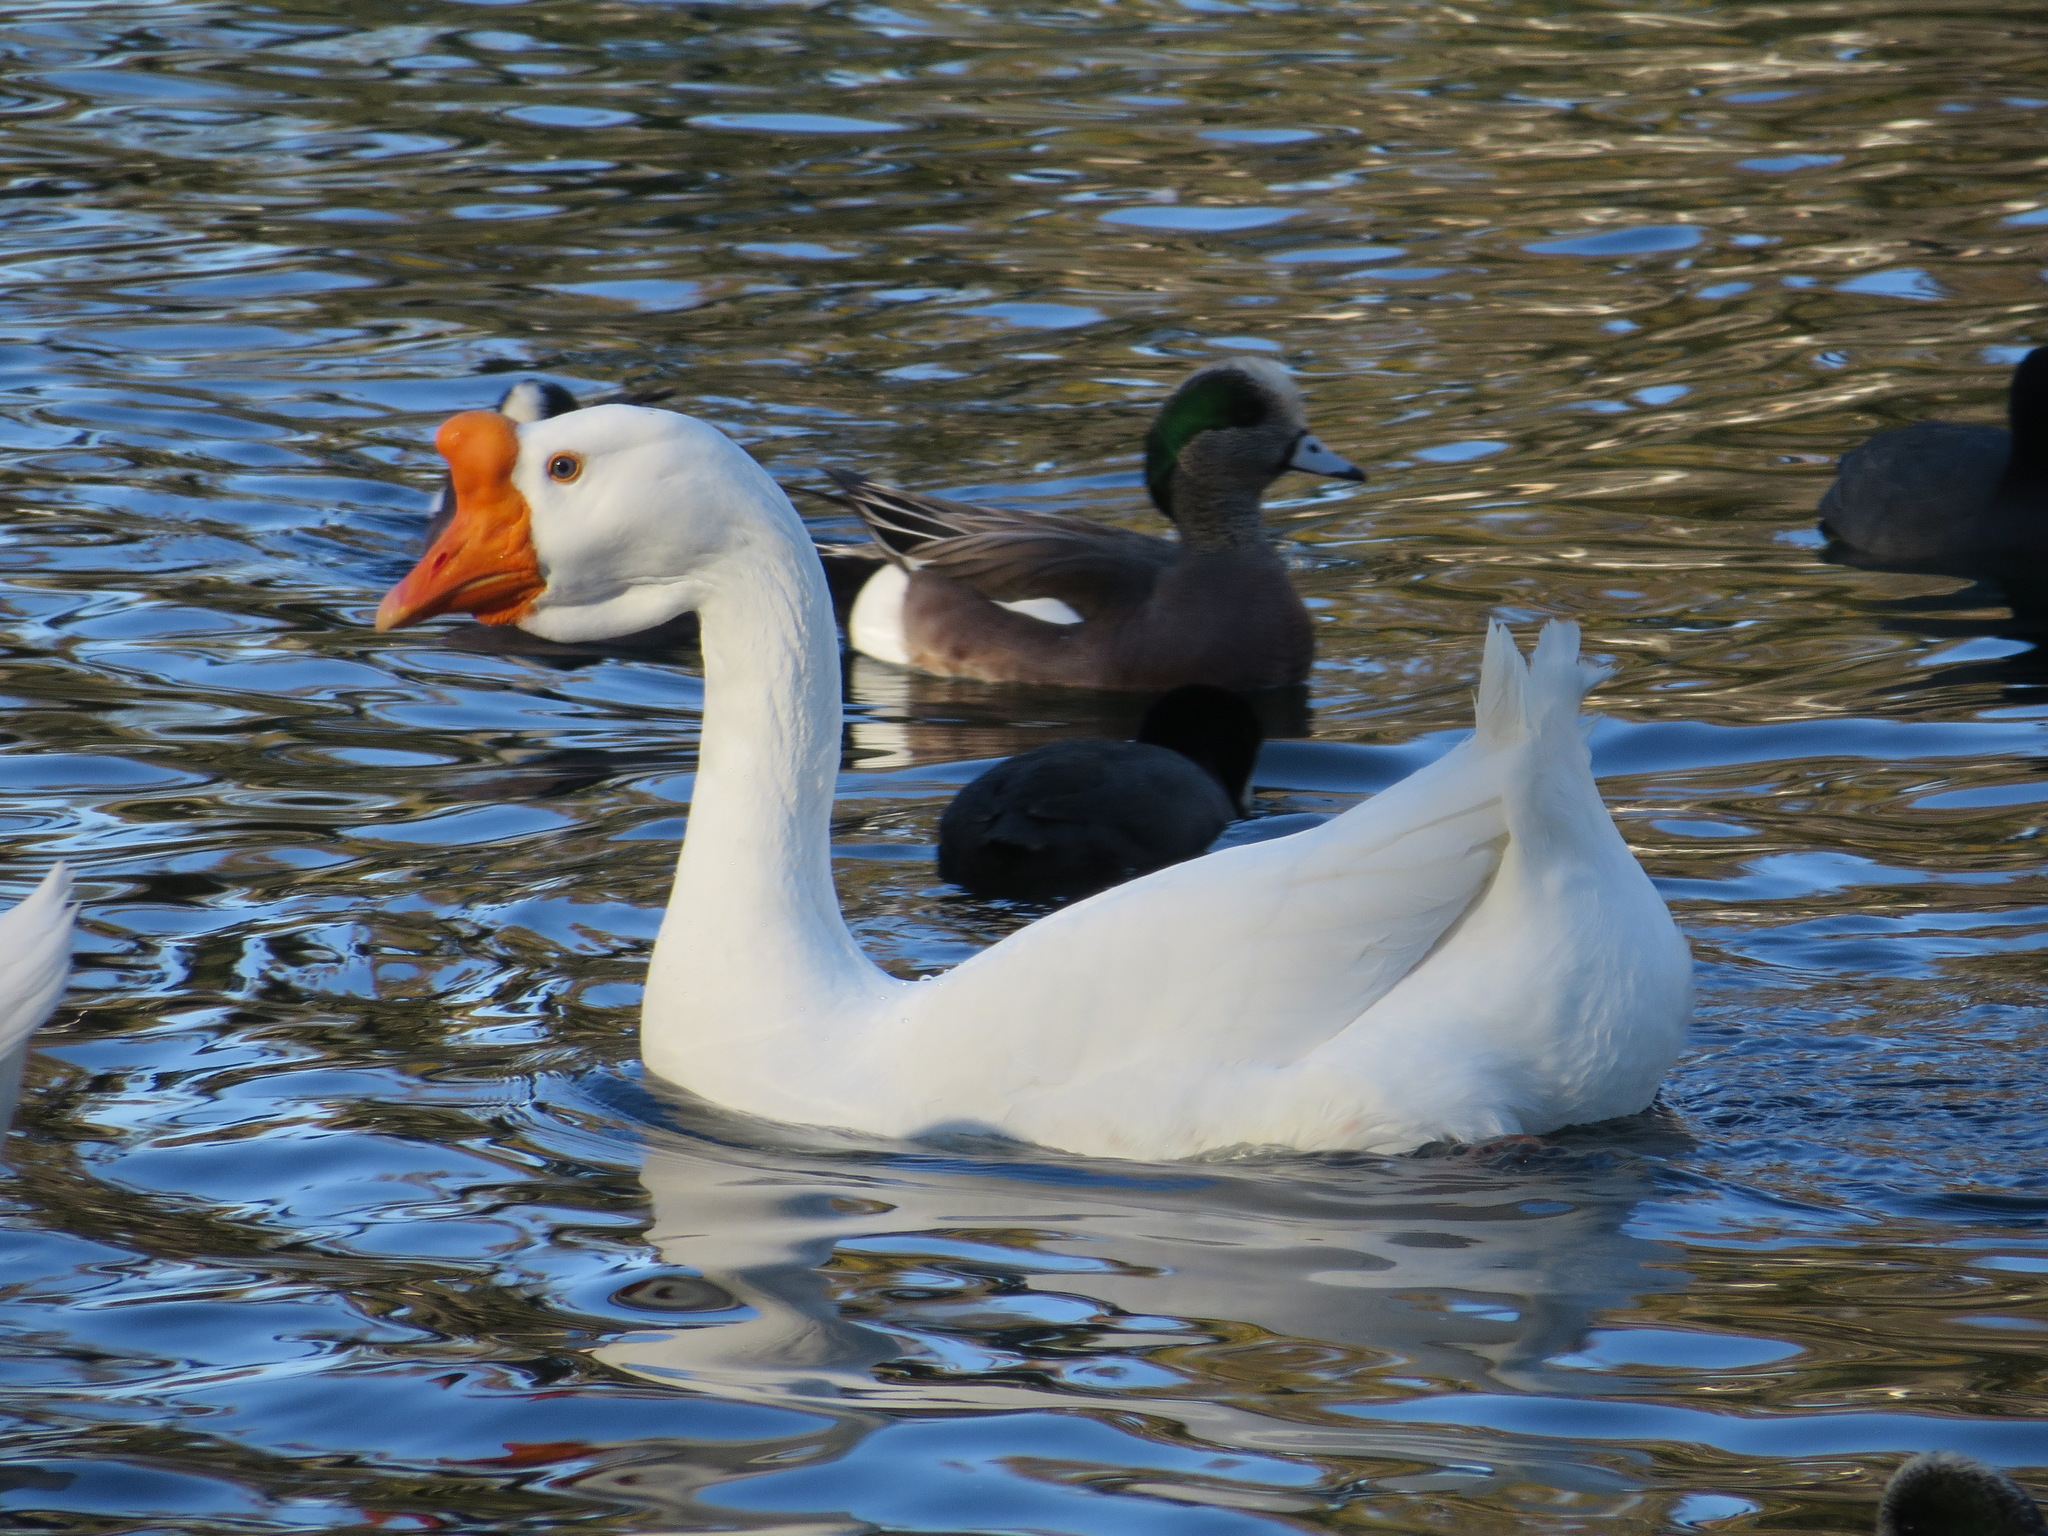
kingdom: Animalia
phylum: Chordata
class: Aves
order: Anseriformes
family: Anatidae
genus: Anser
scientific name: Anser cygnoides
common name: Swan goose
